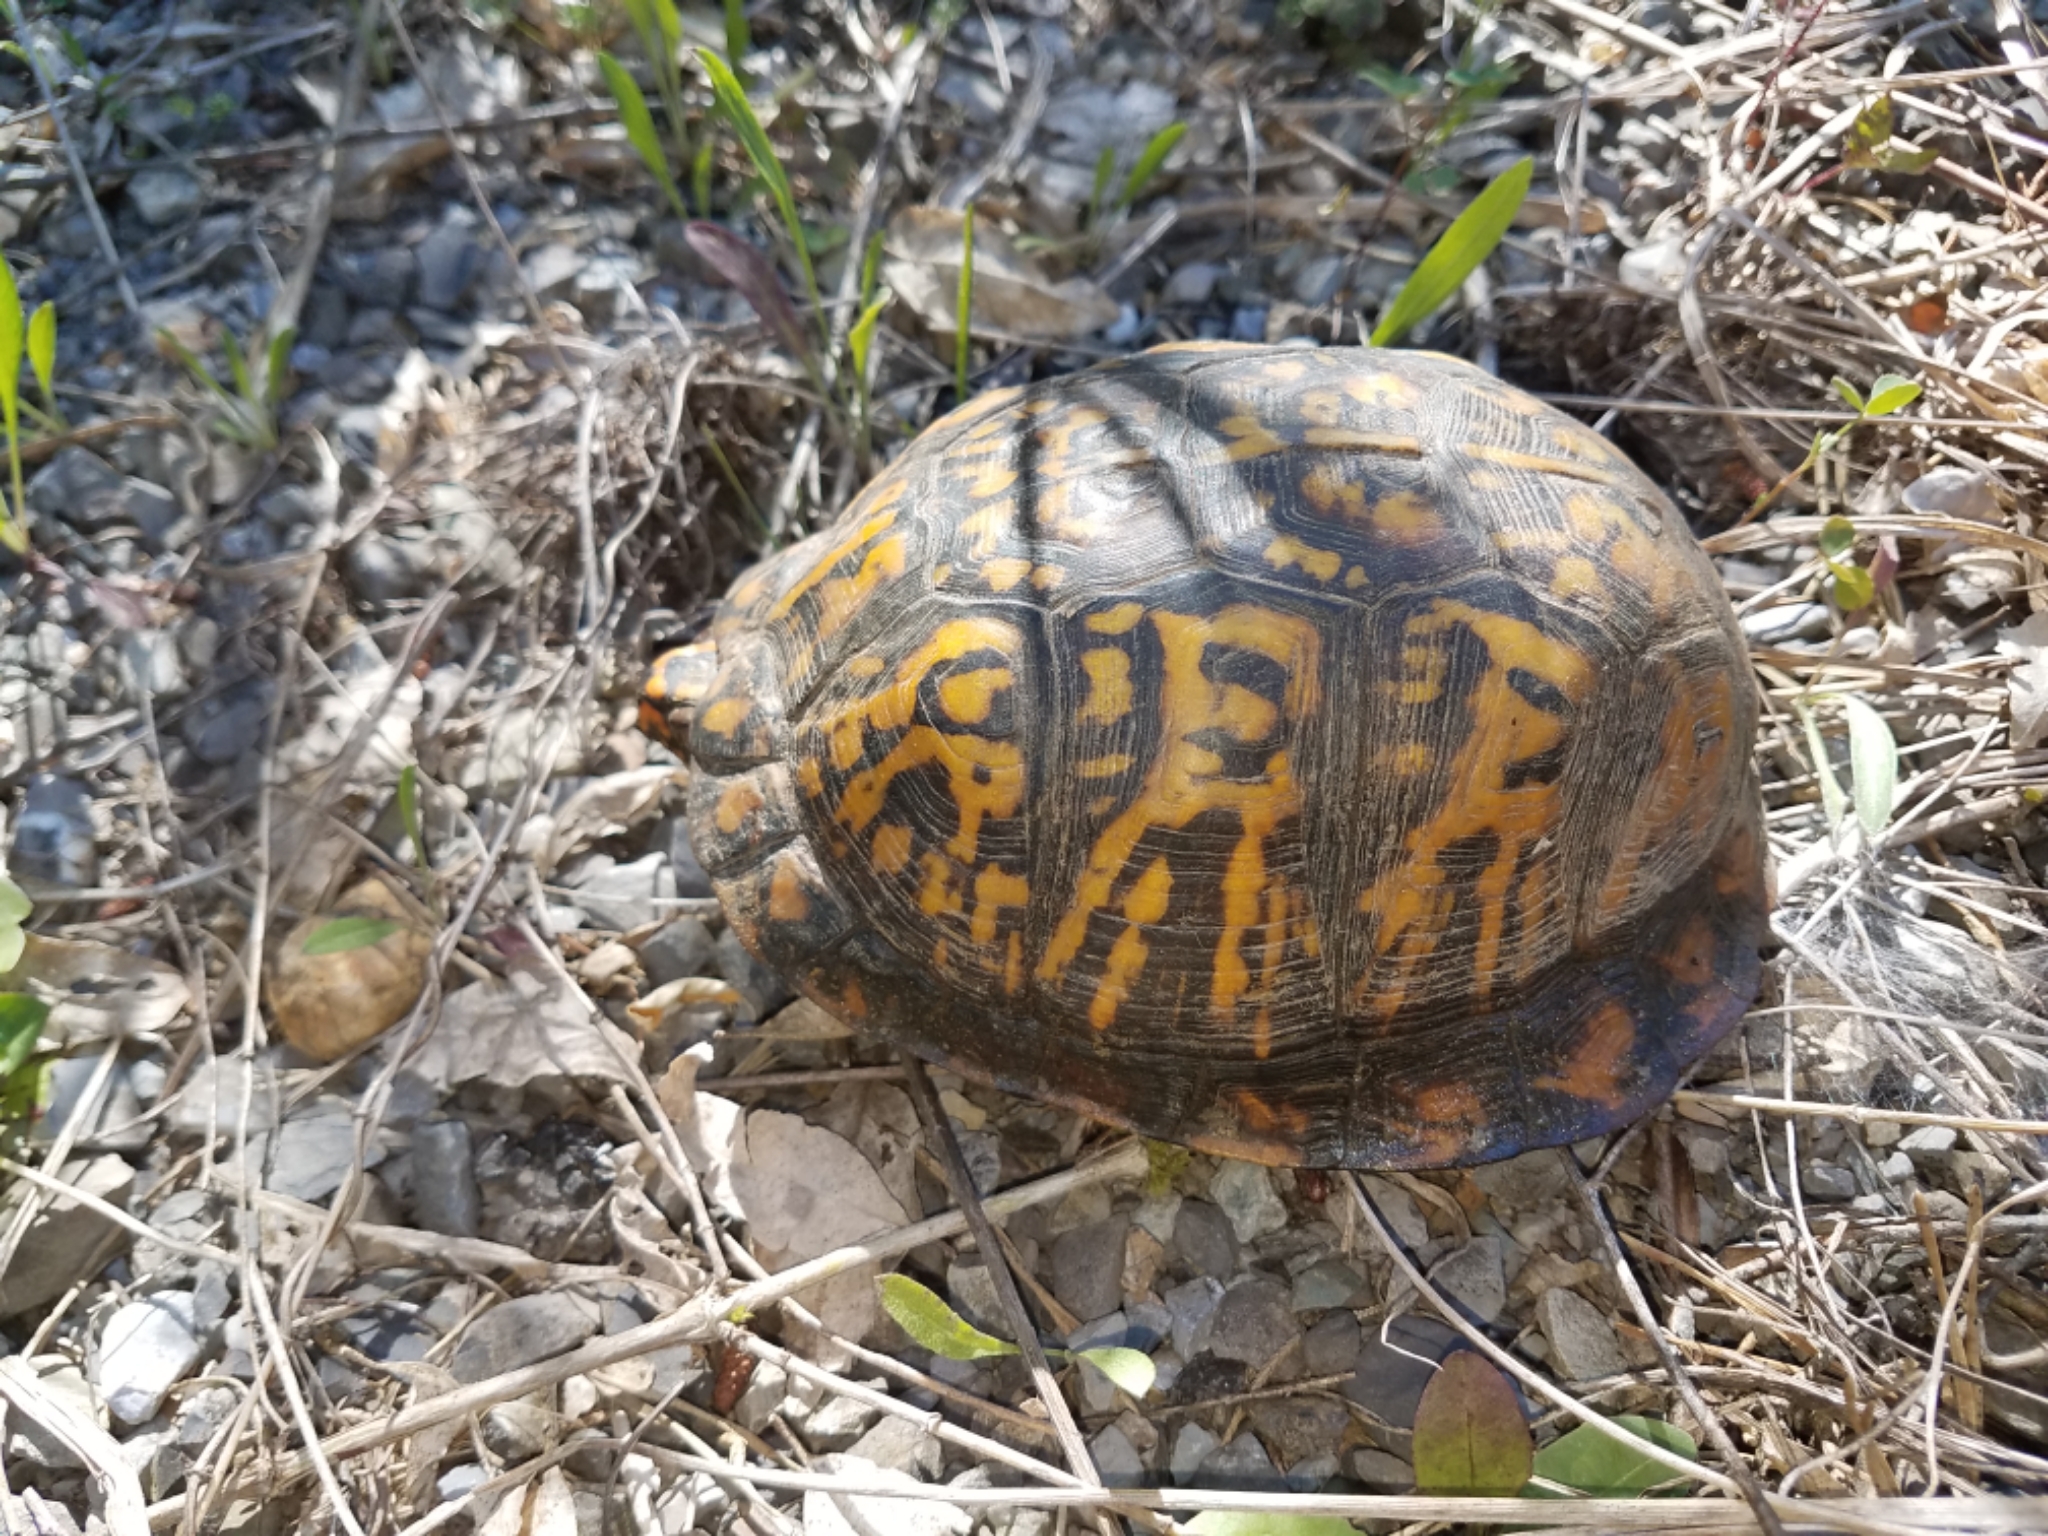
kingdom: Animalia
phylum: Chordata
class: Testudines
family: Emydidae
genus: Terrapene
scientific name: Terrapene carolina
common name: Common box turtle
